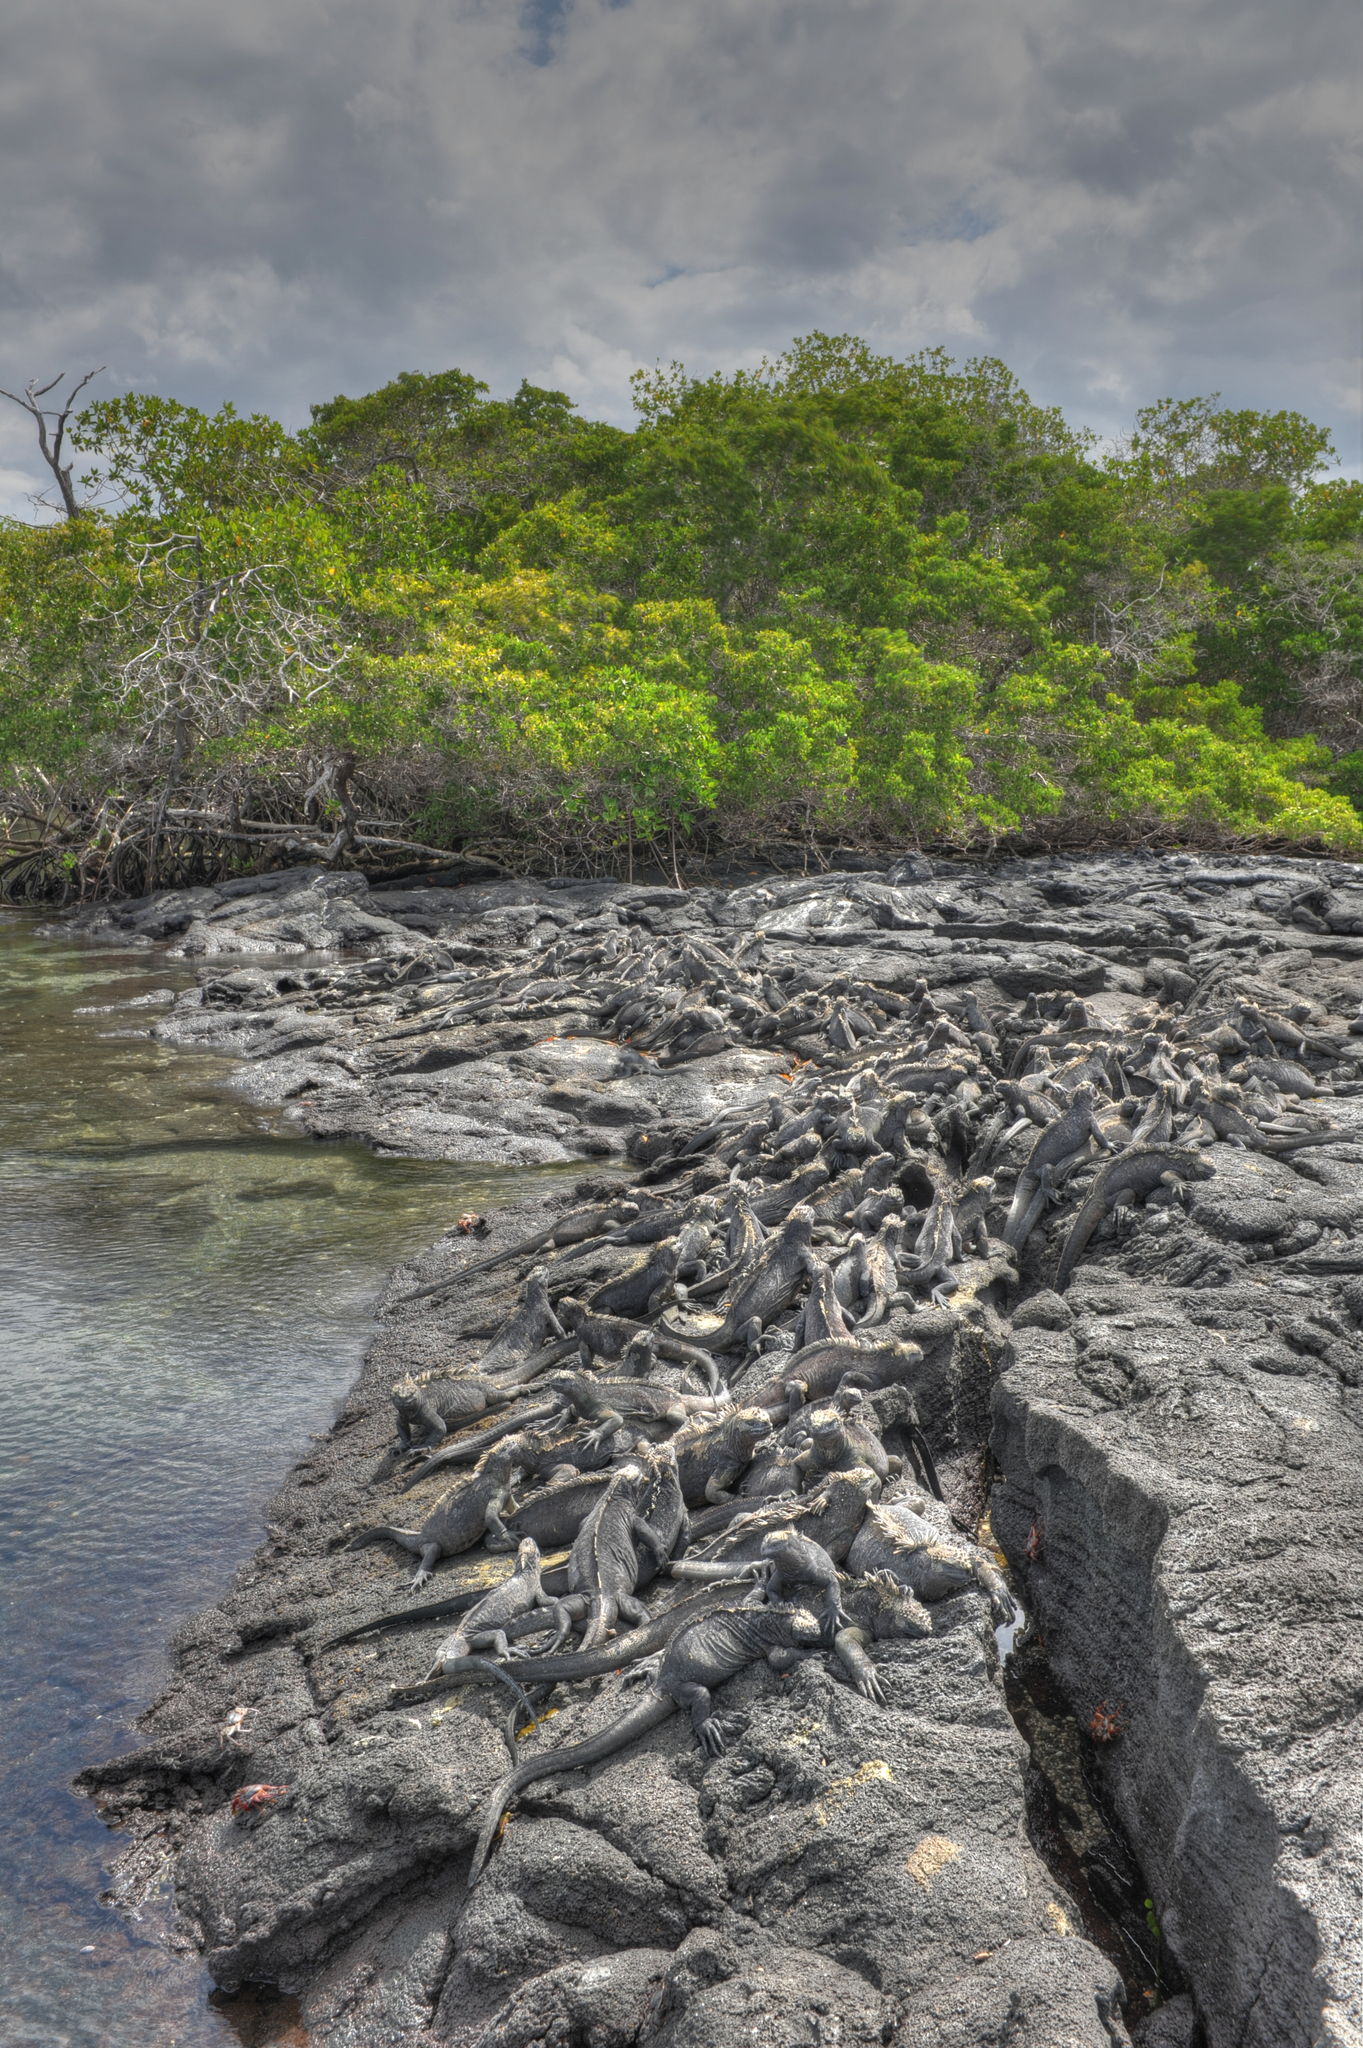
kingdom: Animalia
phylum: Chordata
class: Squamata
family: Iguanidae
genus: Amblyrhynchus
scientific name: Amblyrhynchus cristatus
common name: Marine iguana
